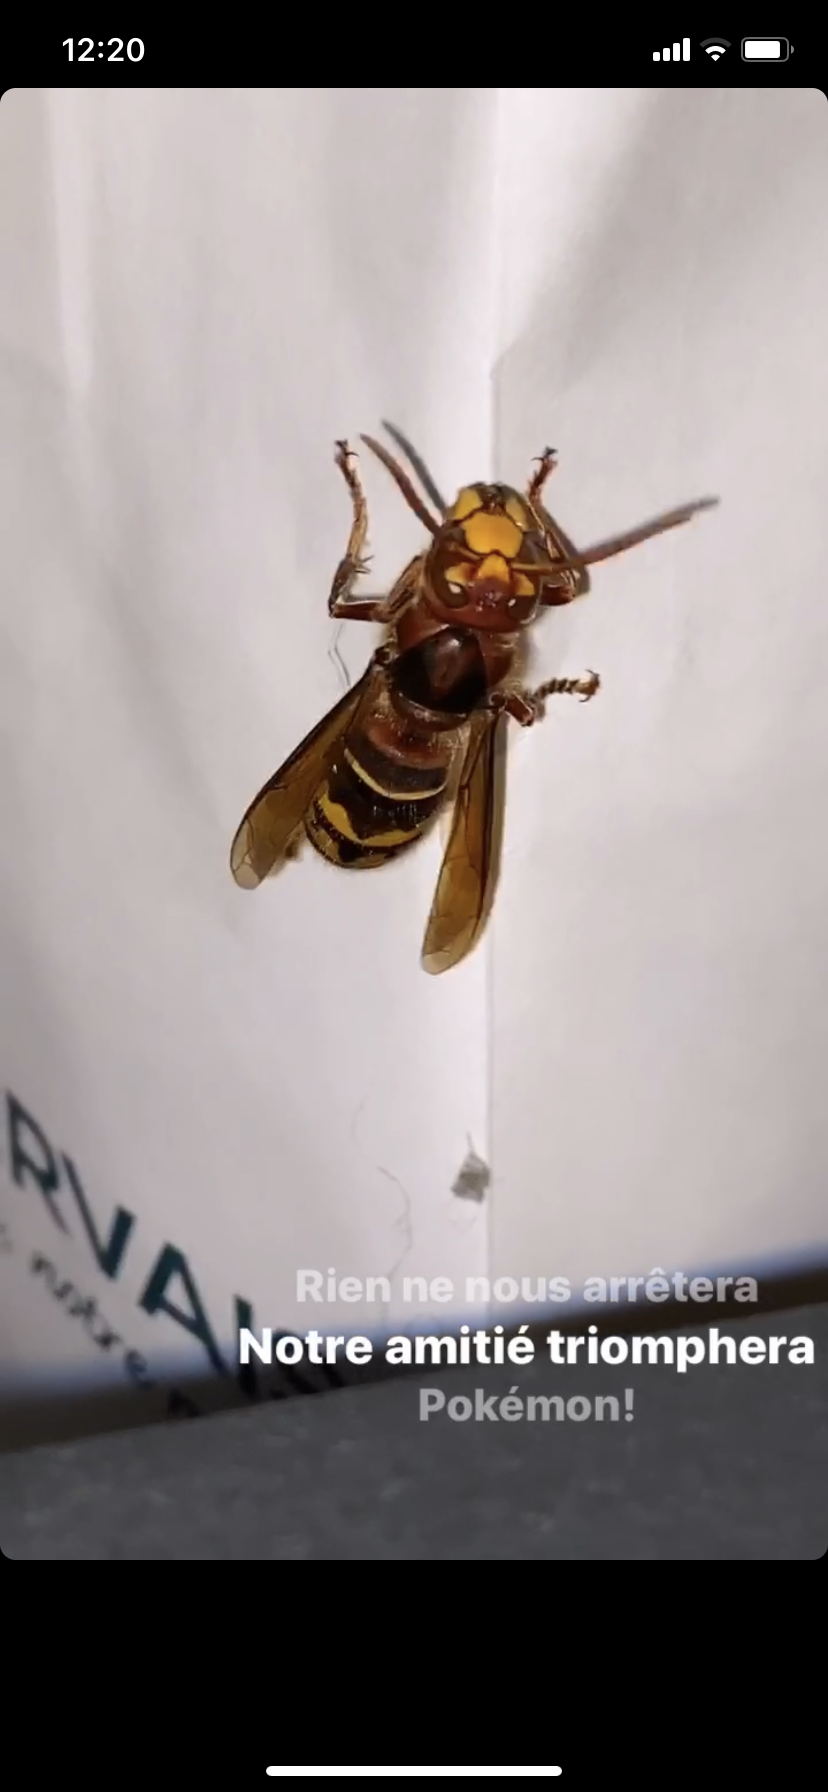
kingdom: Animalia
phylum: Arthropoda
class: Insecta
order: Hymenoptera
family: Vespidae
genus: Vespa
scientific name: Vespa crabro
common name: Hornet
